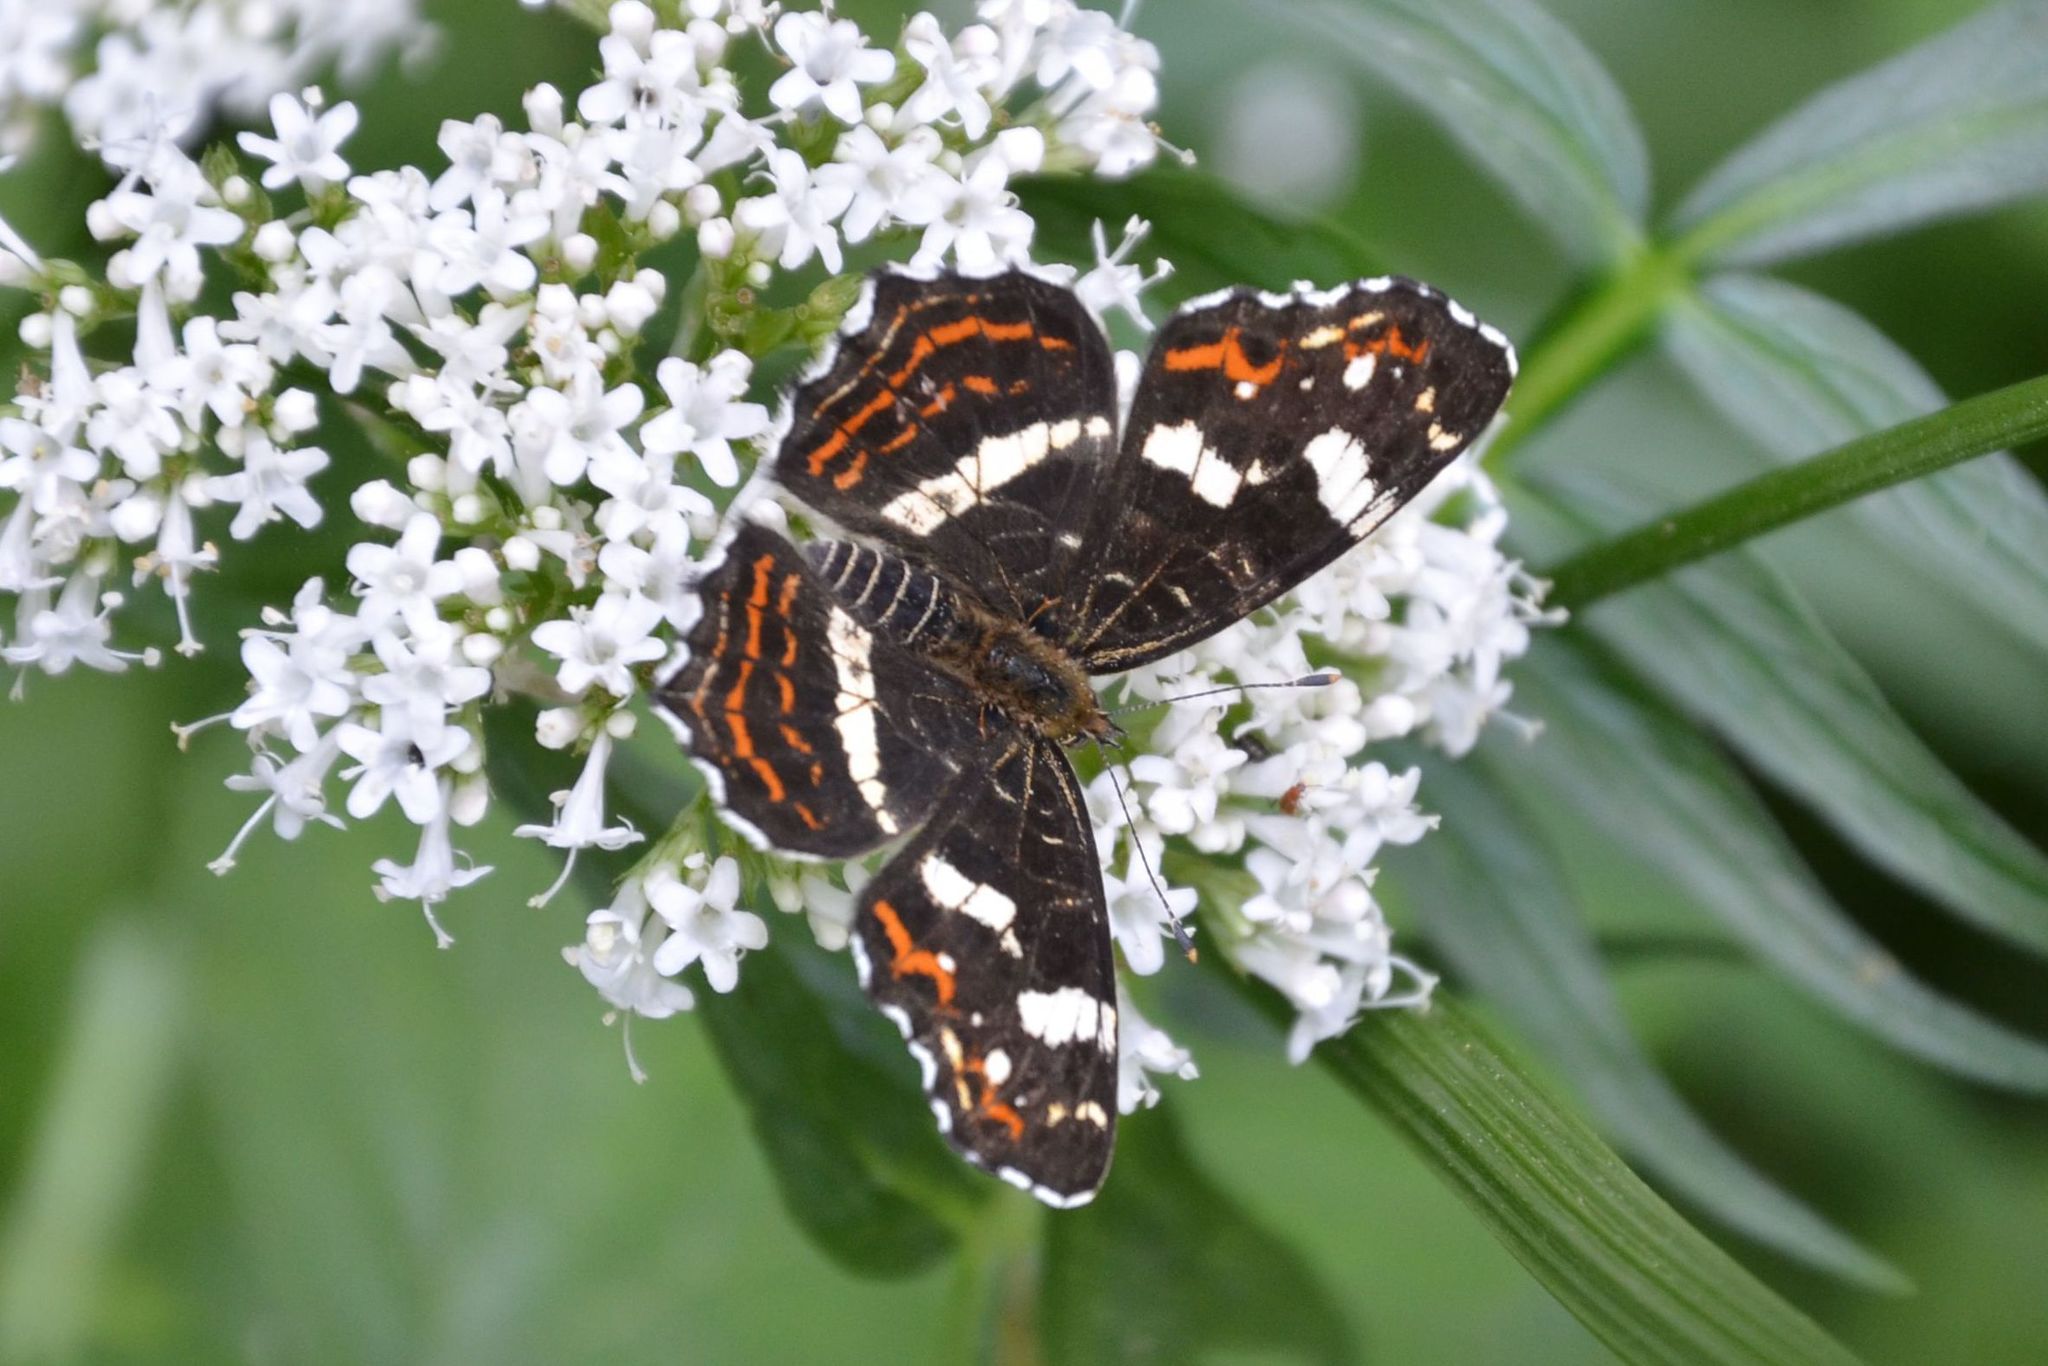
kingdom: Animalia
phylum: Arthropoda
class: Insecta
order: Lepidoptera
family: Nymphalidae
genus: Araschnia
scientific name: Araschnia levana
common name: Map butterfly
